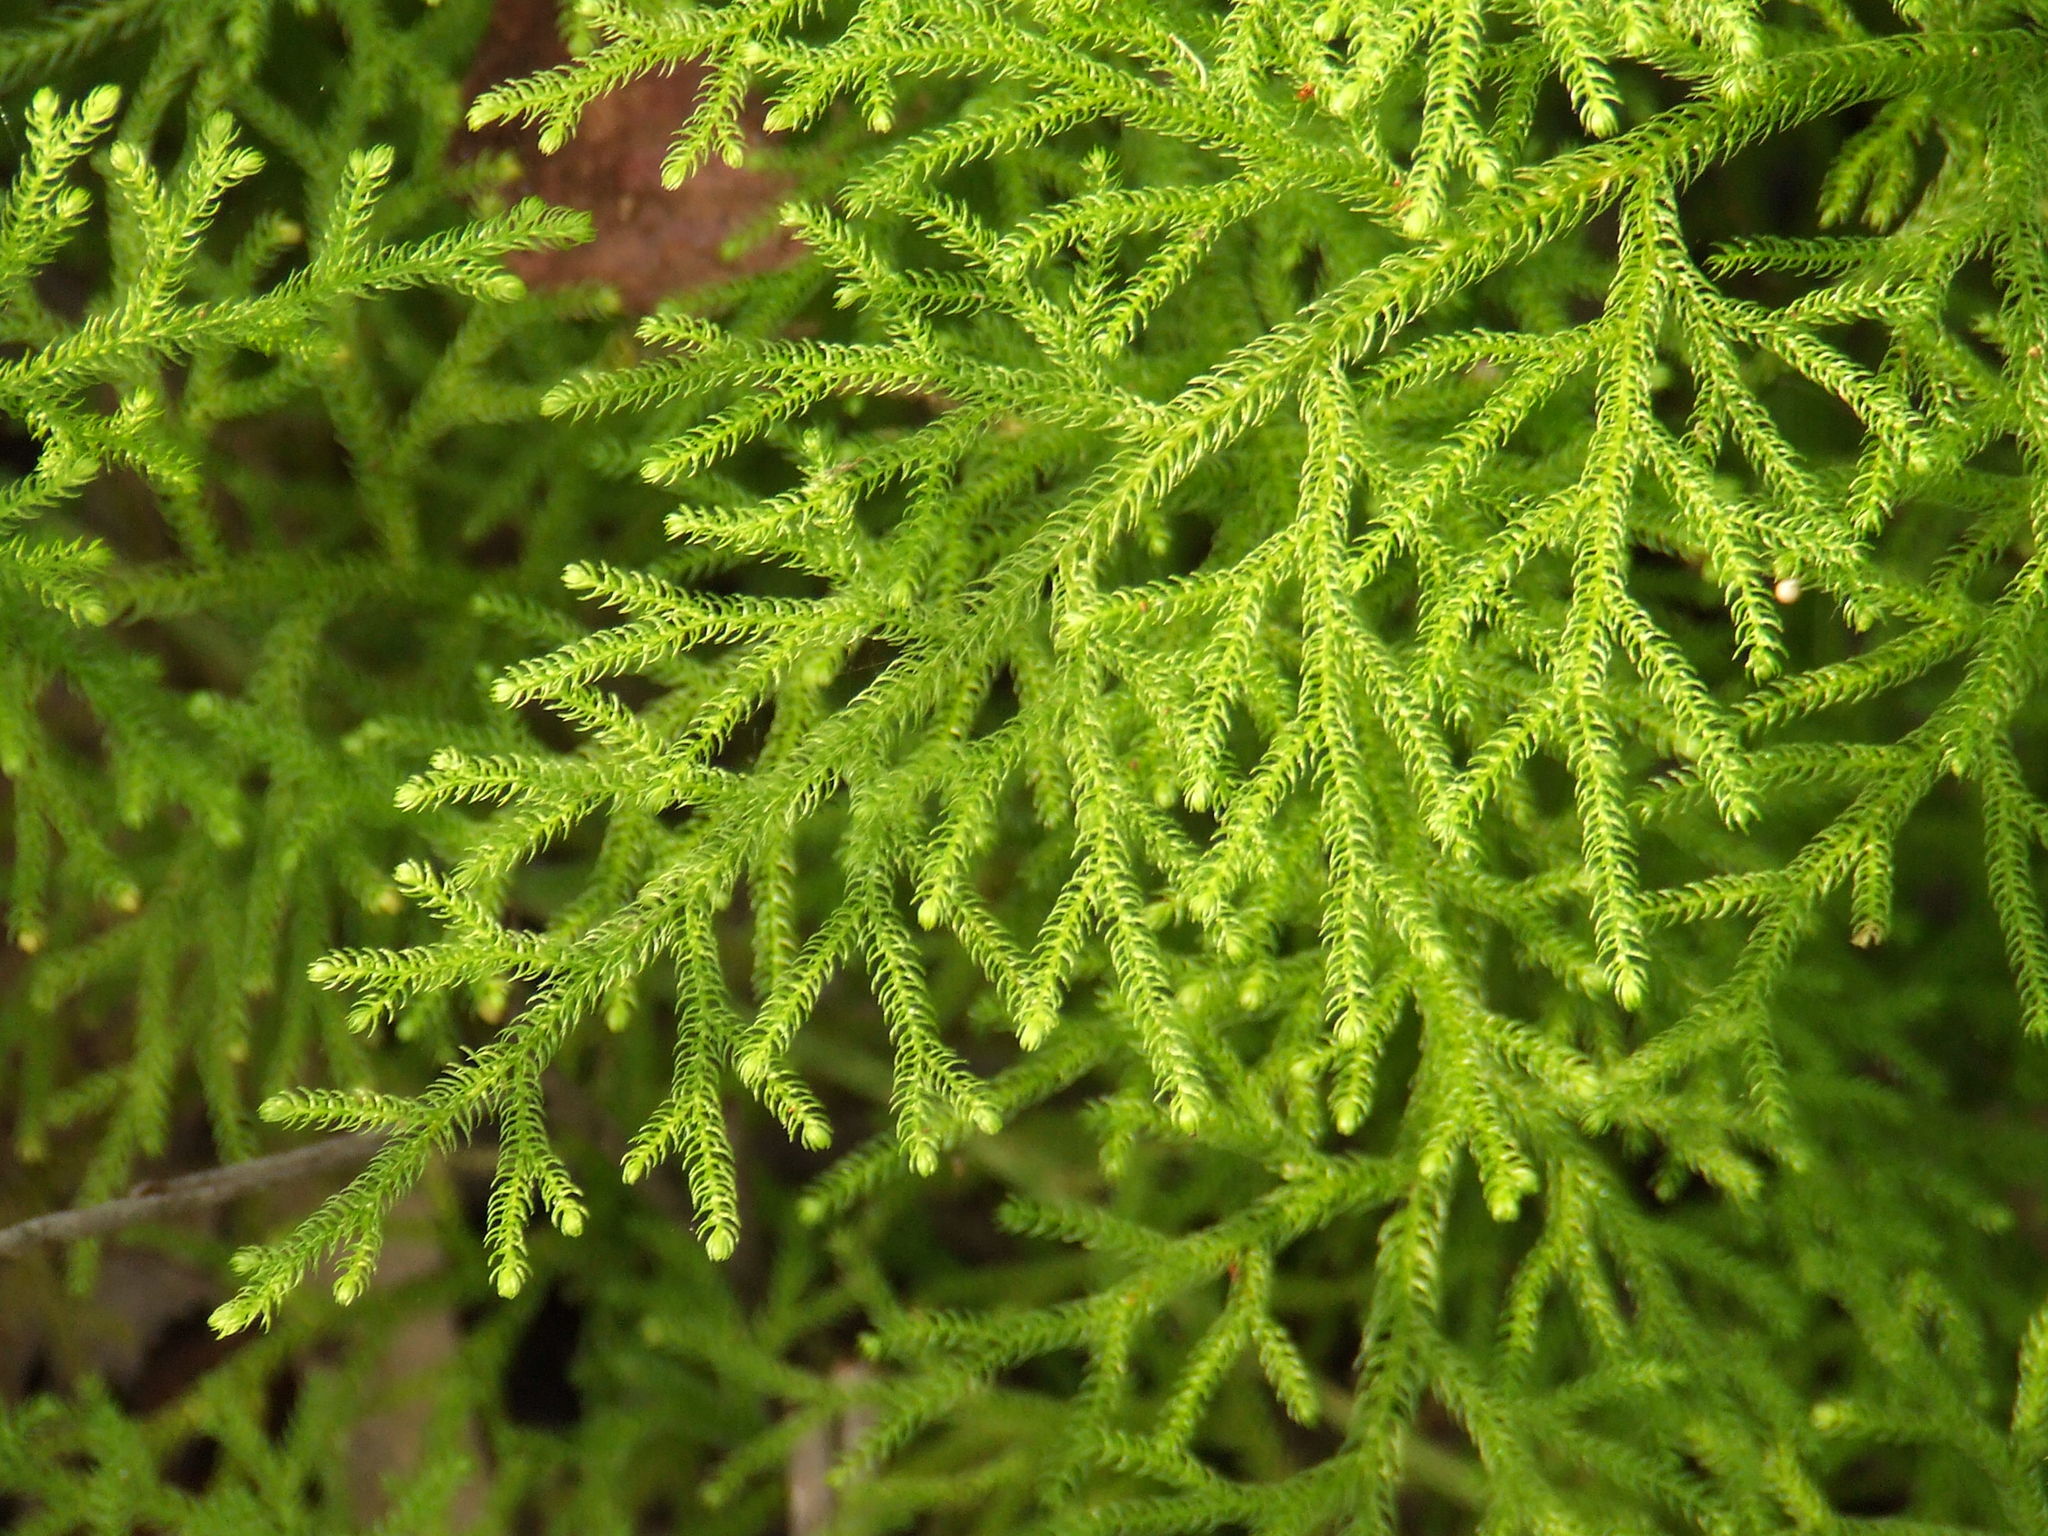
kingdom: Plantae
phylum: Tracheophyta
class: Lycopodiopsida
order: Lycopodiales
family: Lycopodiaceae
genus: Palhinhaea
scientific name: Palhinhaea cernua
